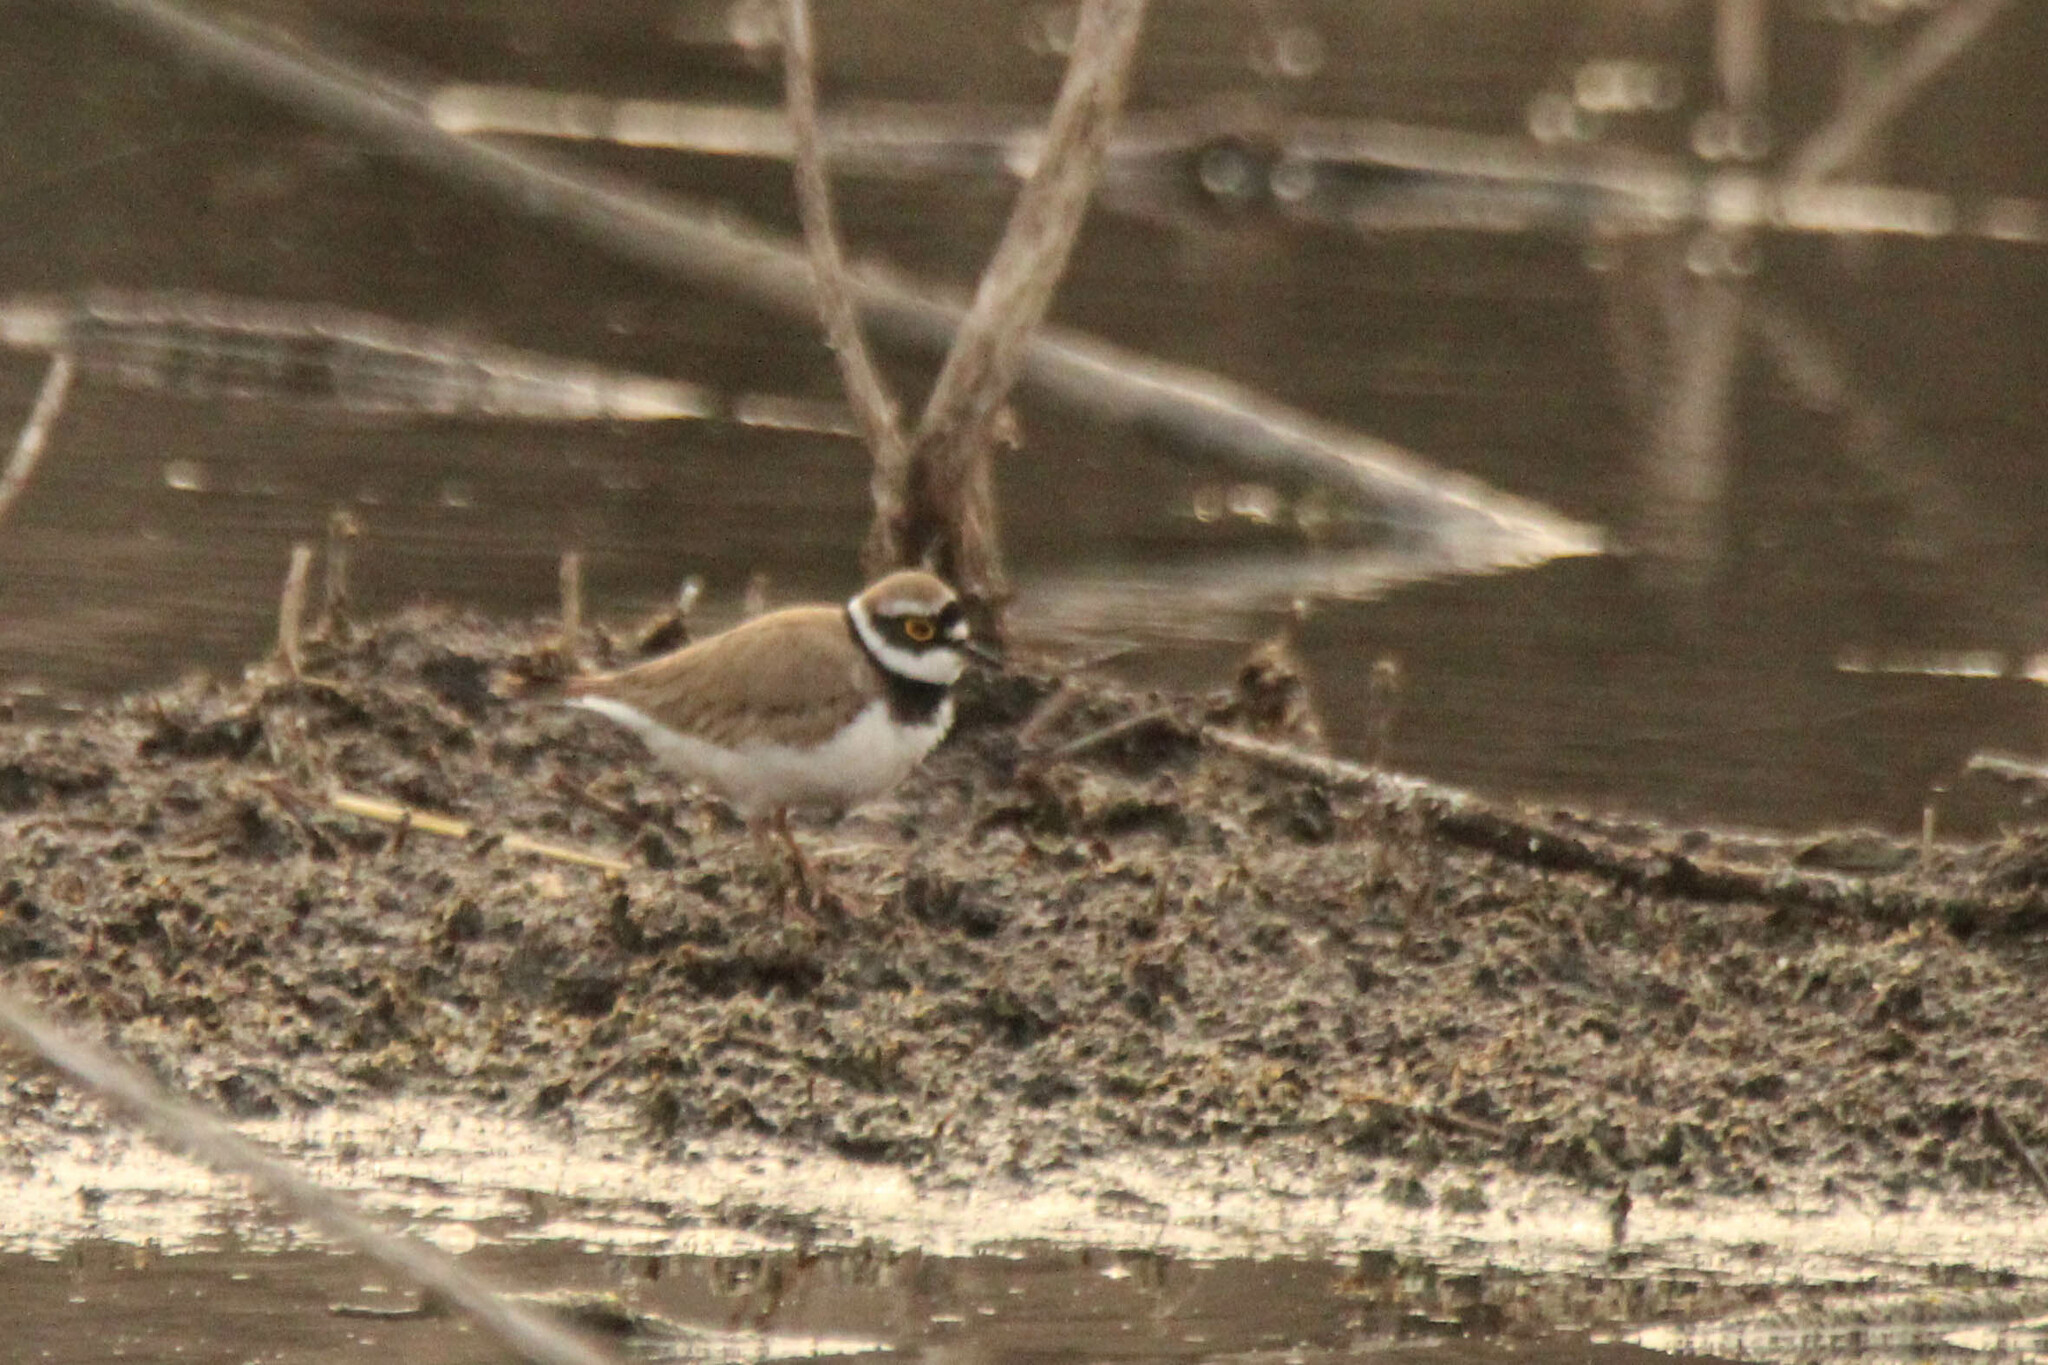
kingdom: Animalia
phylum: Chordata
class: Aves
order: Charadriiformes
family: Charadriidae
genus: Charadrius
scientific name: Charadrius dubius
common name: Little ringed plover
